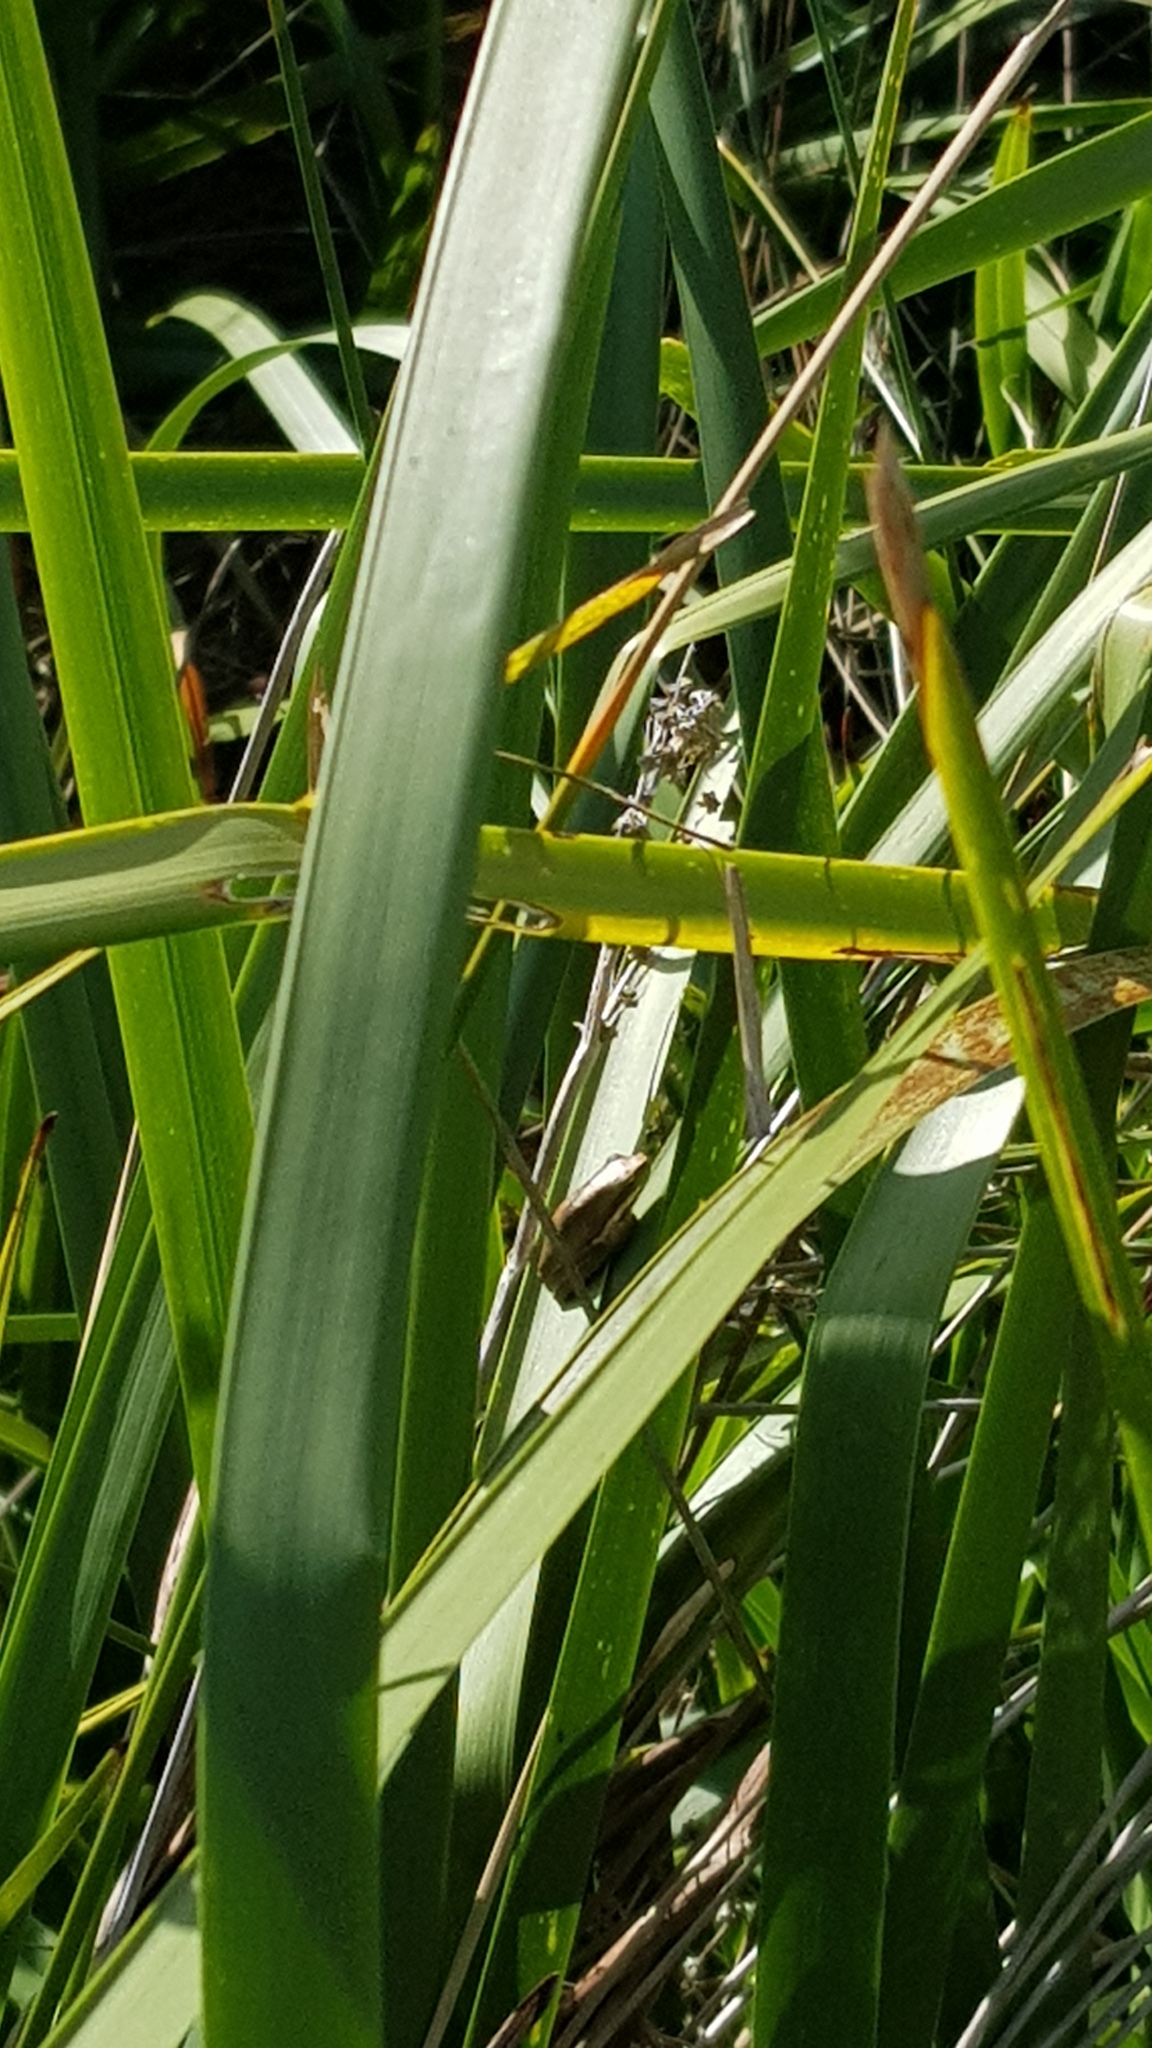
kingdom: Animalia
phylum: Chordata
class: Amphibia
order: Anura
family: Pelodryadidae
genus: Litoria
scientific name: Litoria fallax
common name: Eastern dwarf treefrog
